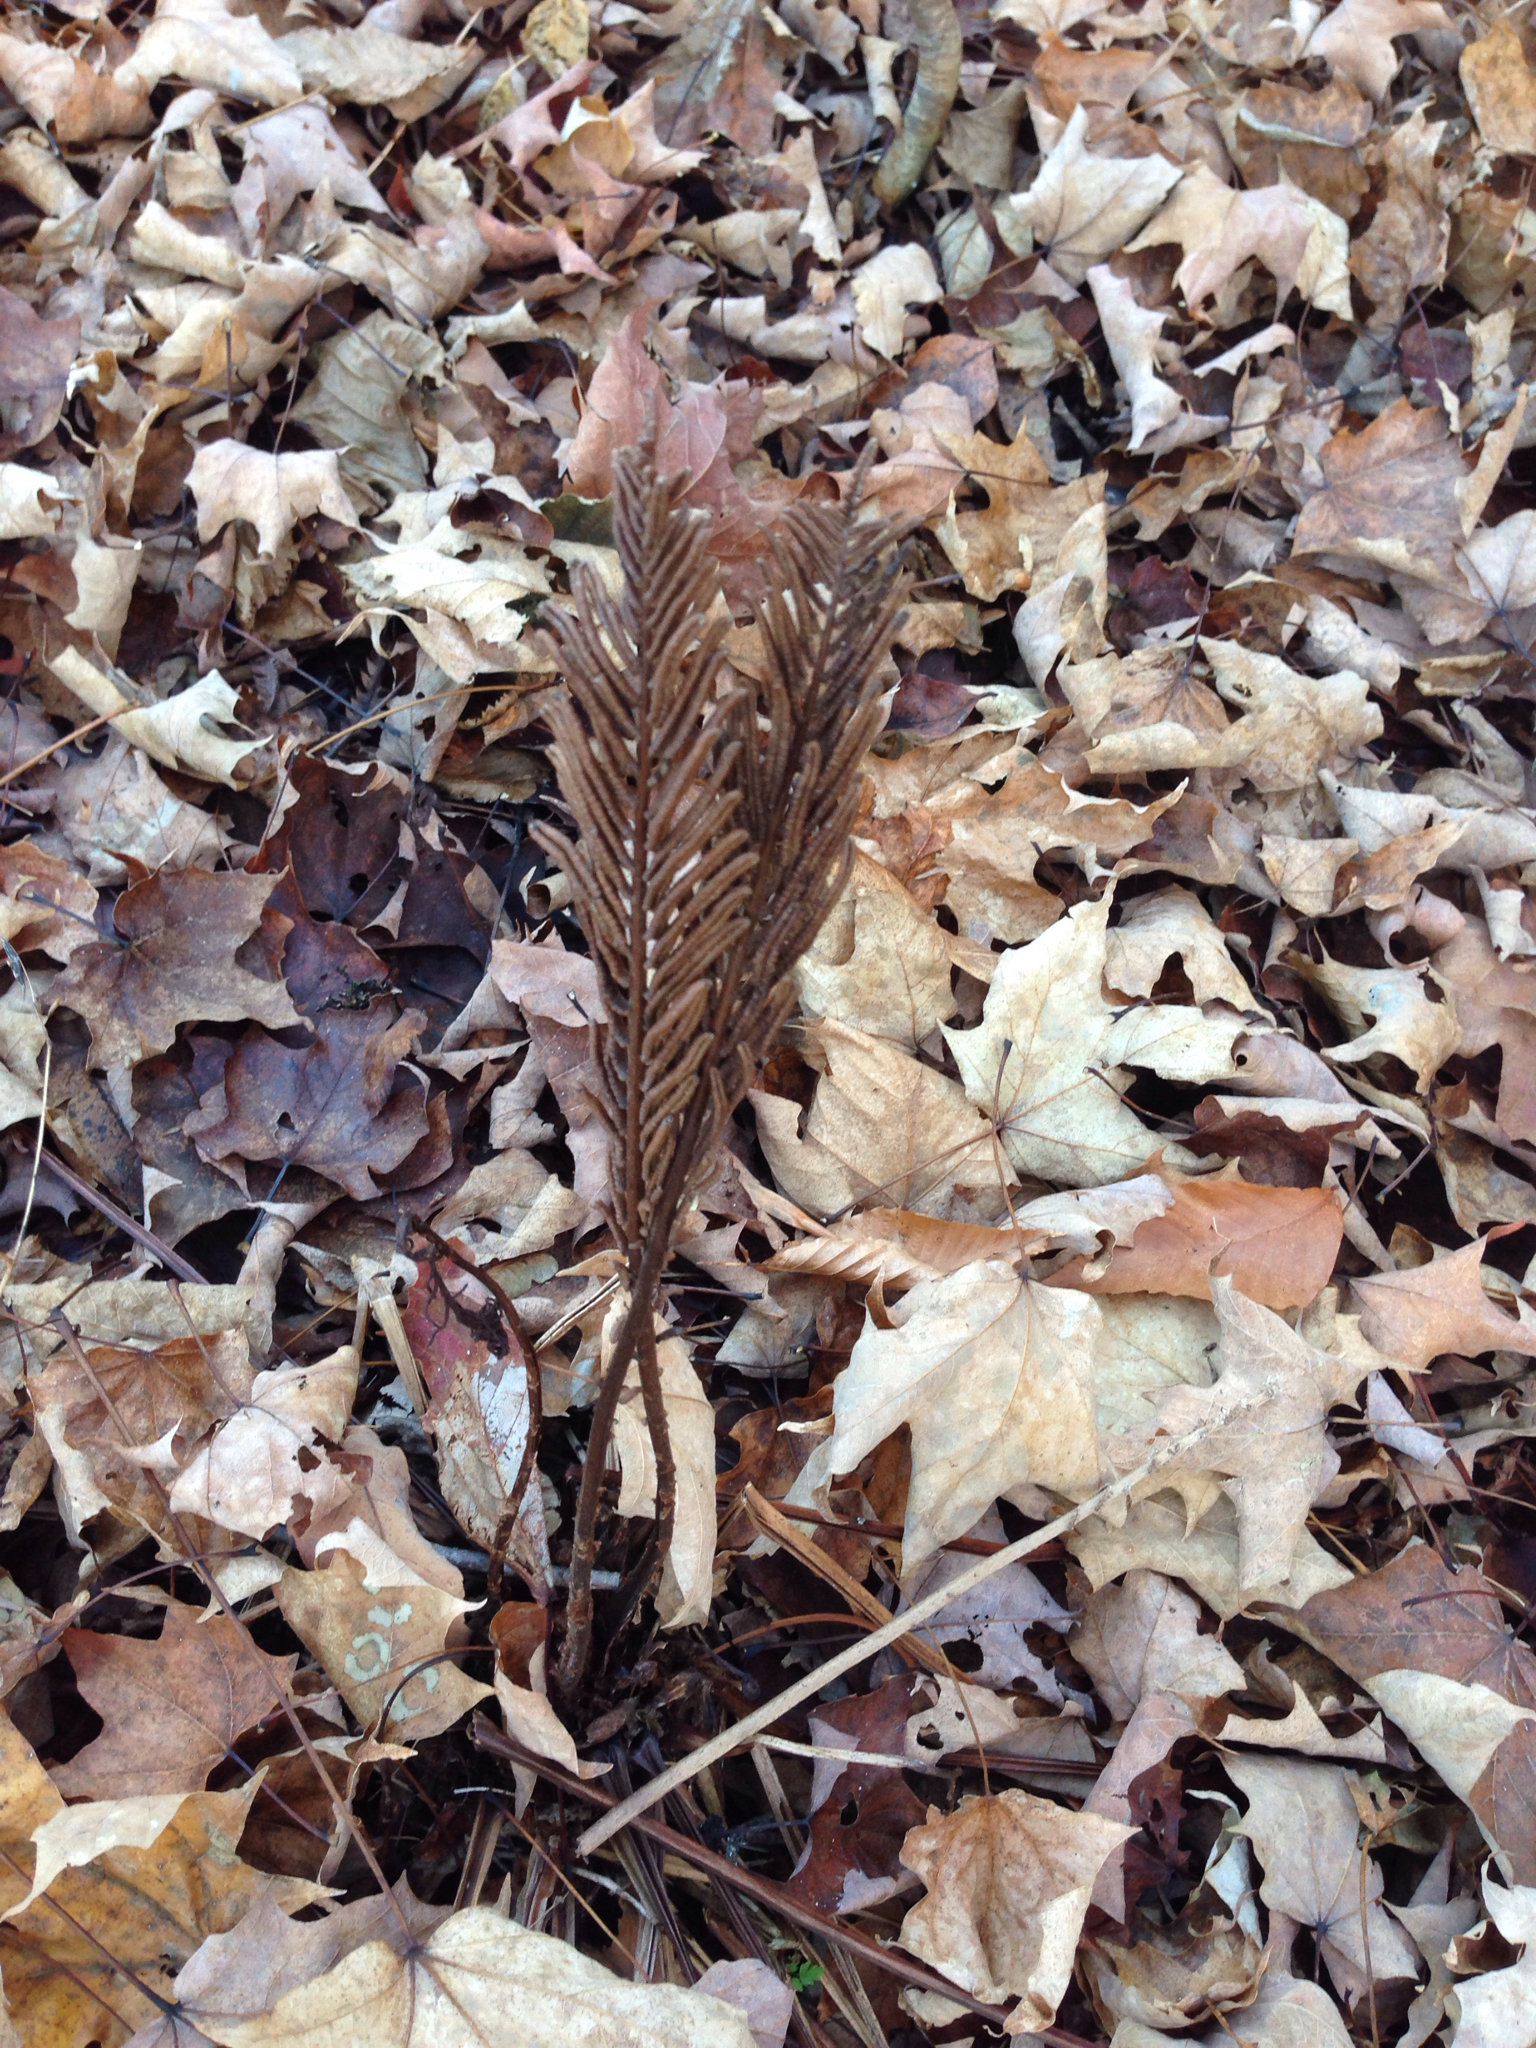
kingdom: Plantae
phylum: Tracheophyta
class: Polypodiopsida
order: Polypodiales
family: Onocleaceae
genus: Matteuccia
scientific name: Matteuccia struthiopteris
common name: Ostrich fern
